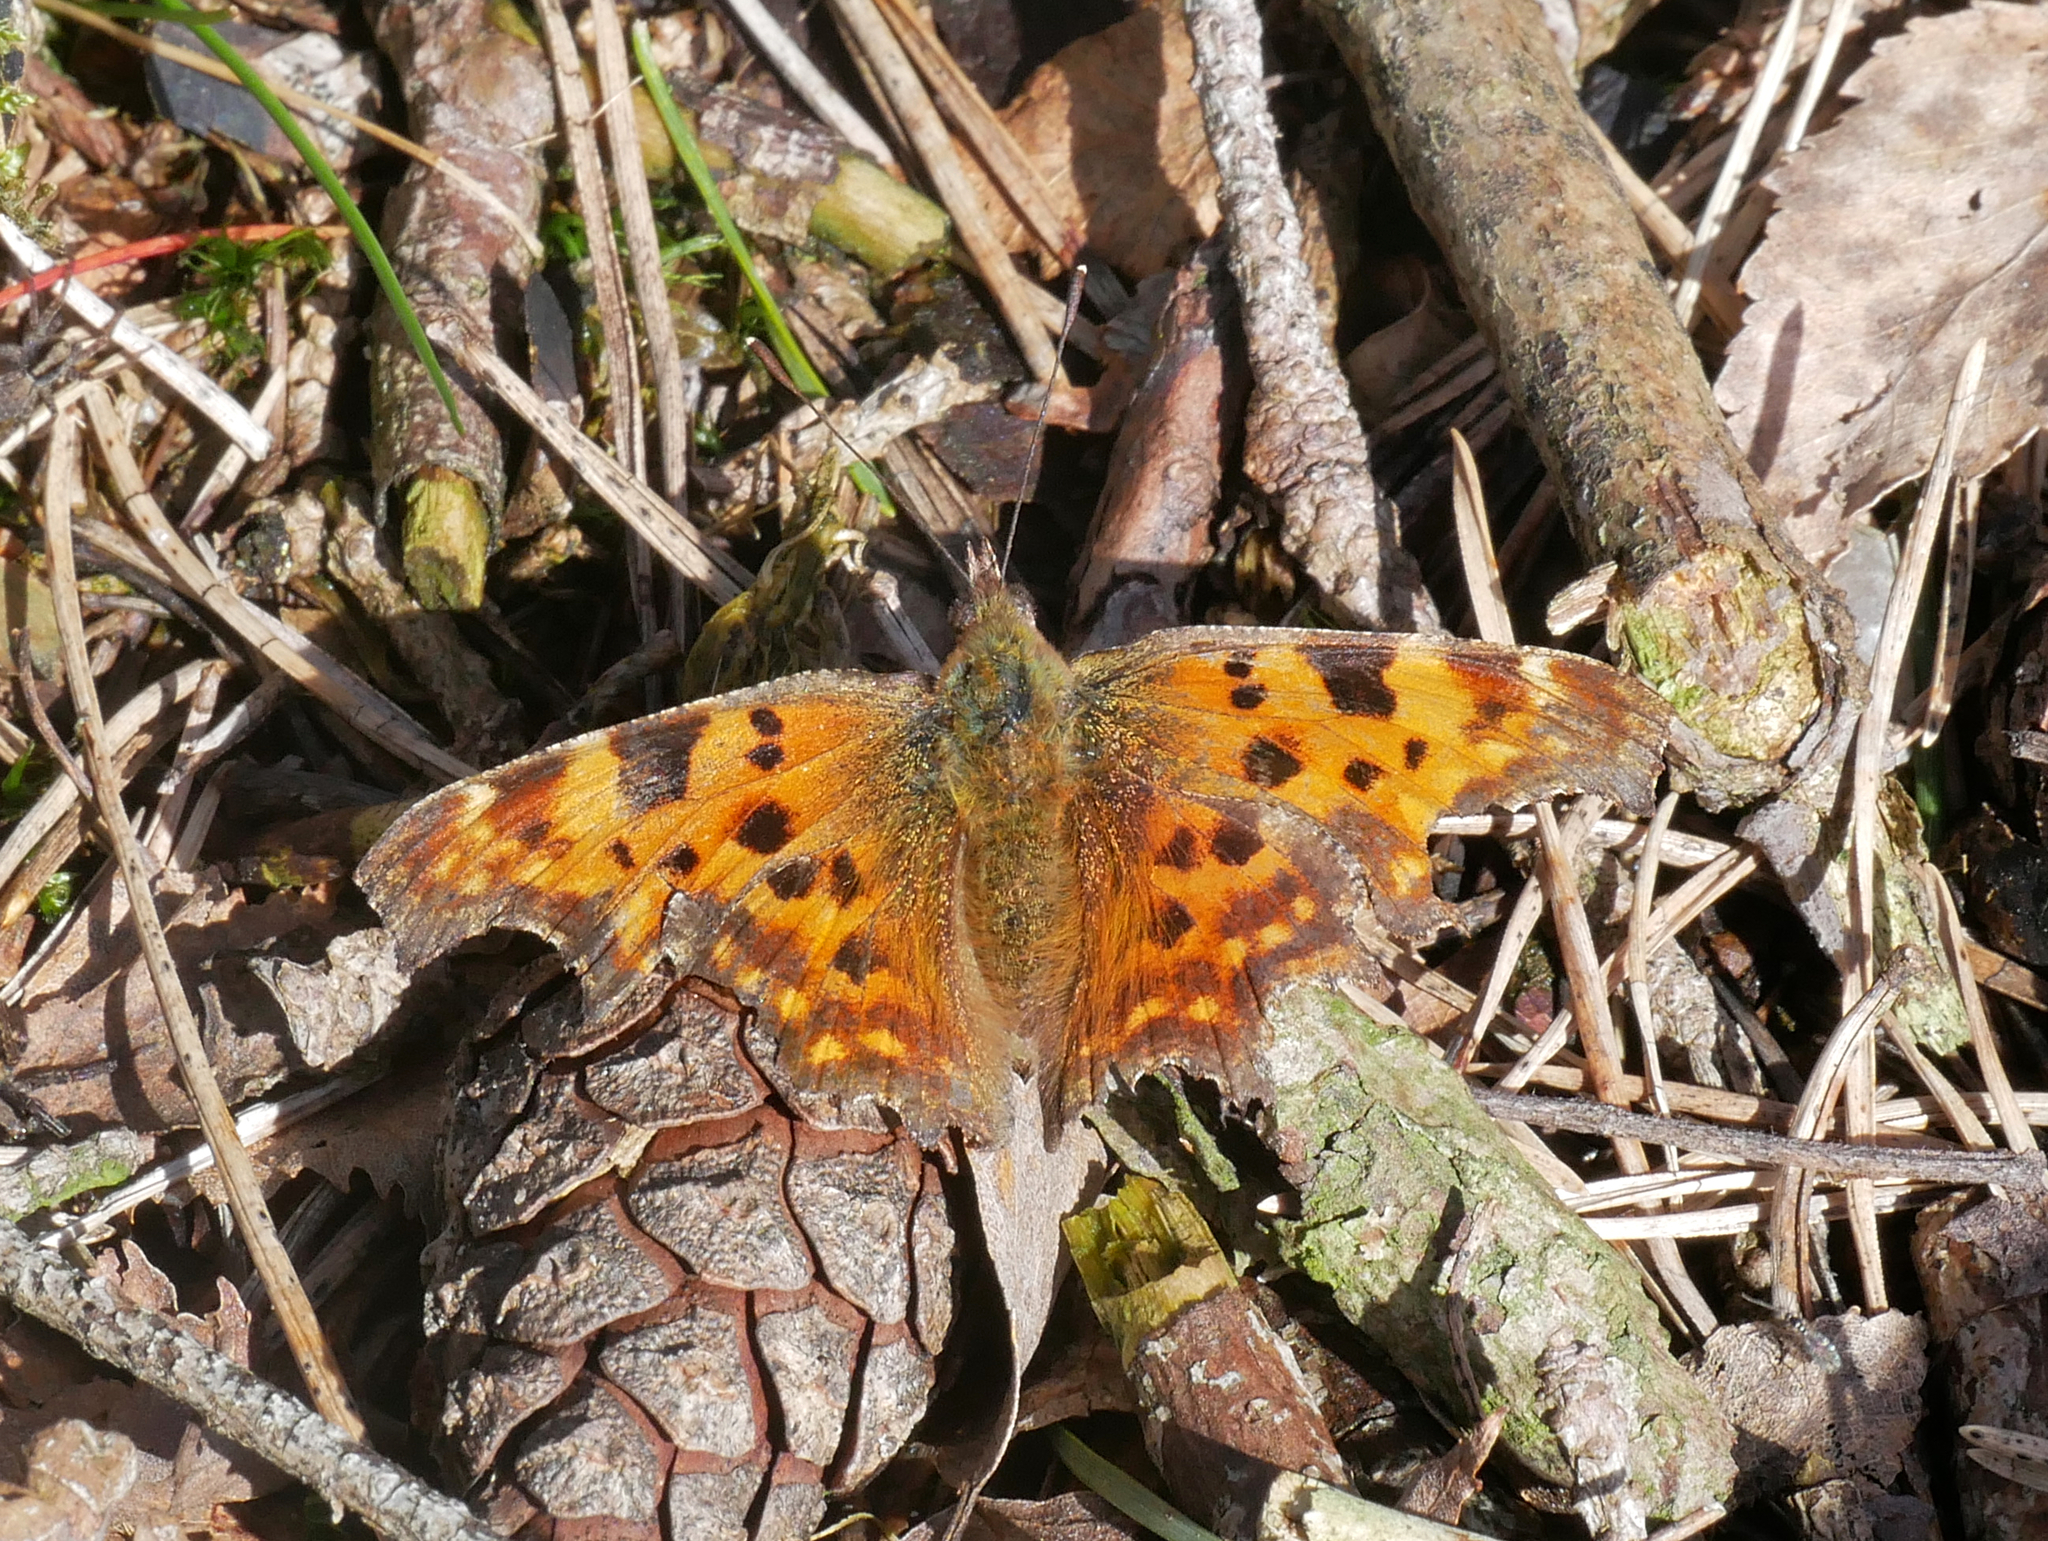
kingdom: Animalia
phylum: Arthropoda
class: Insecta
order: Lepidoptera
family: Nymphalidae
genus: Polygonia
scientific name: Polygonia c-album
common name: Comma
